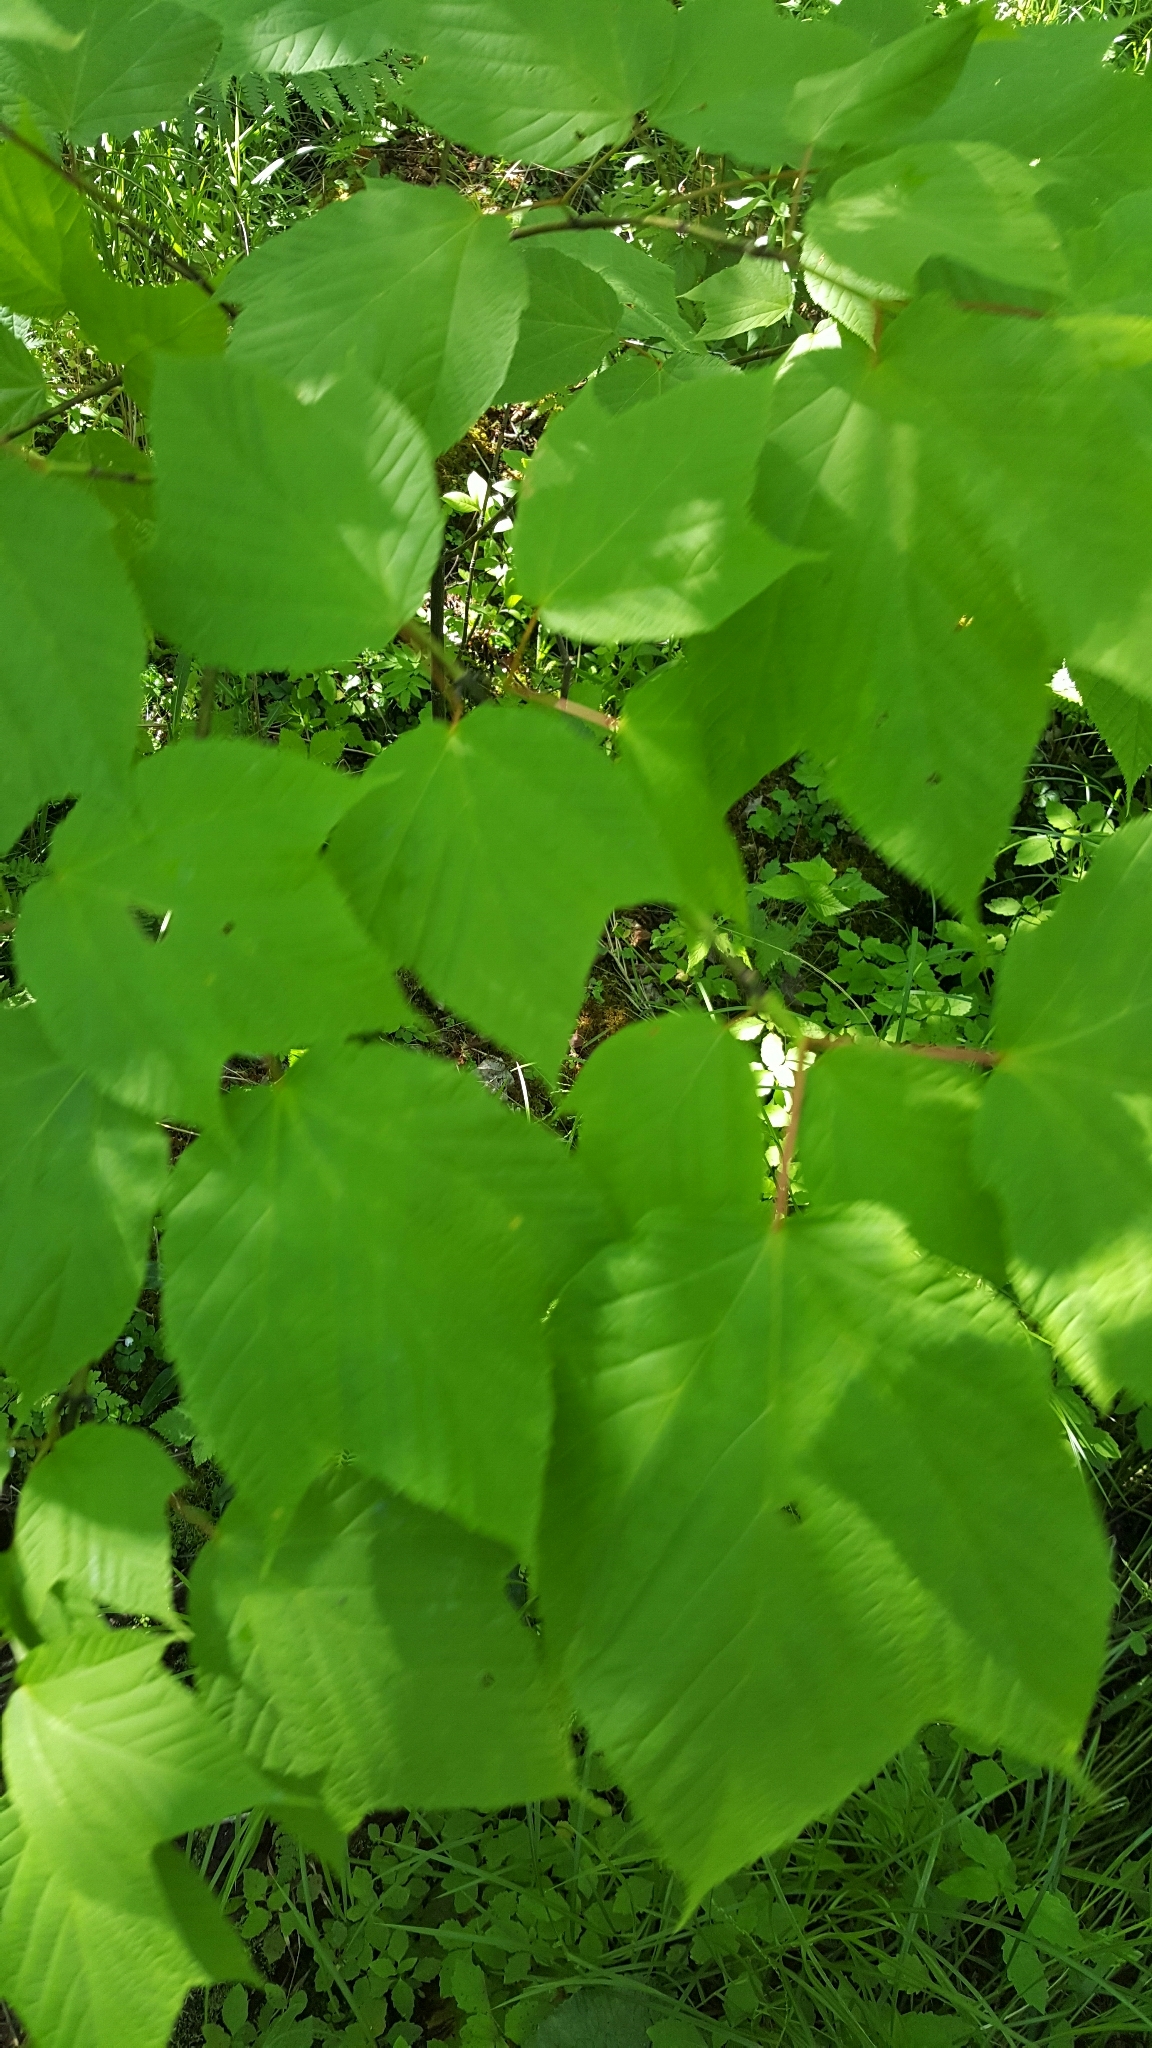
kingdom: Plantae
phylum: Tracheophyta
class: Magnoliopsida
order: Sapindales
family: Sapindaceae
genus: Acer
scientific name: Acer pensylvanicum
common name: Moosewood
